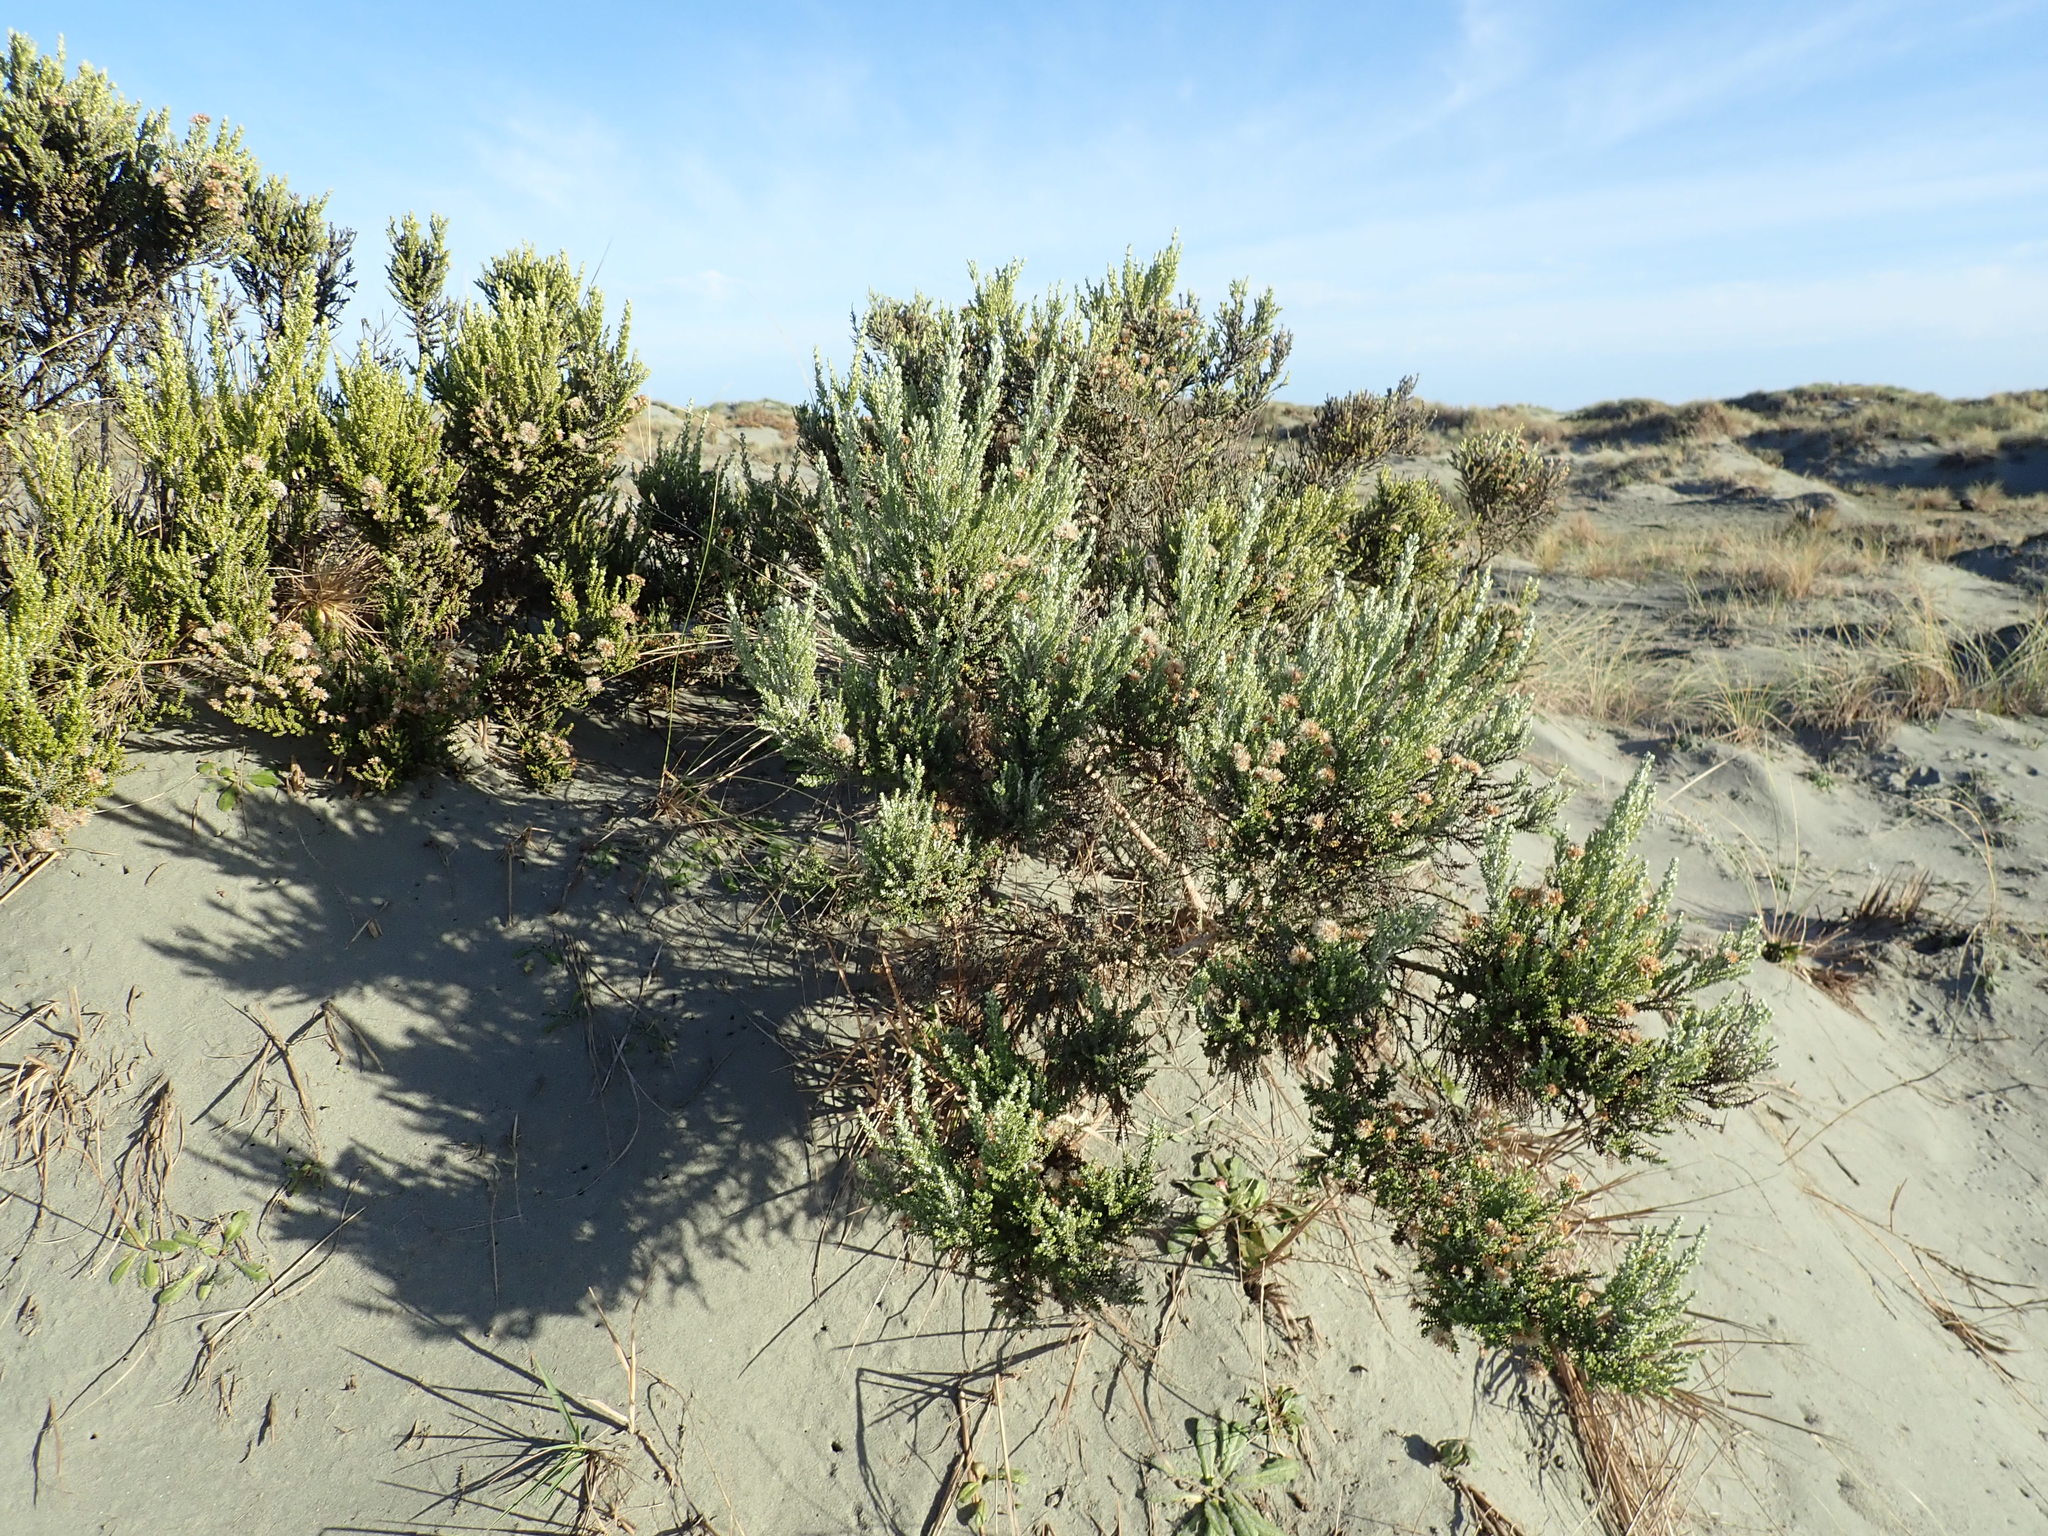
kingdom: Plantae
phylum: Tracheophyta
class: Magnoliopsida
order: Asterales
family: Asteraceae
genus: Ozothamnus
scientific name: Ozothamnus leptophyllus
